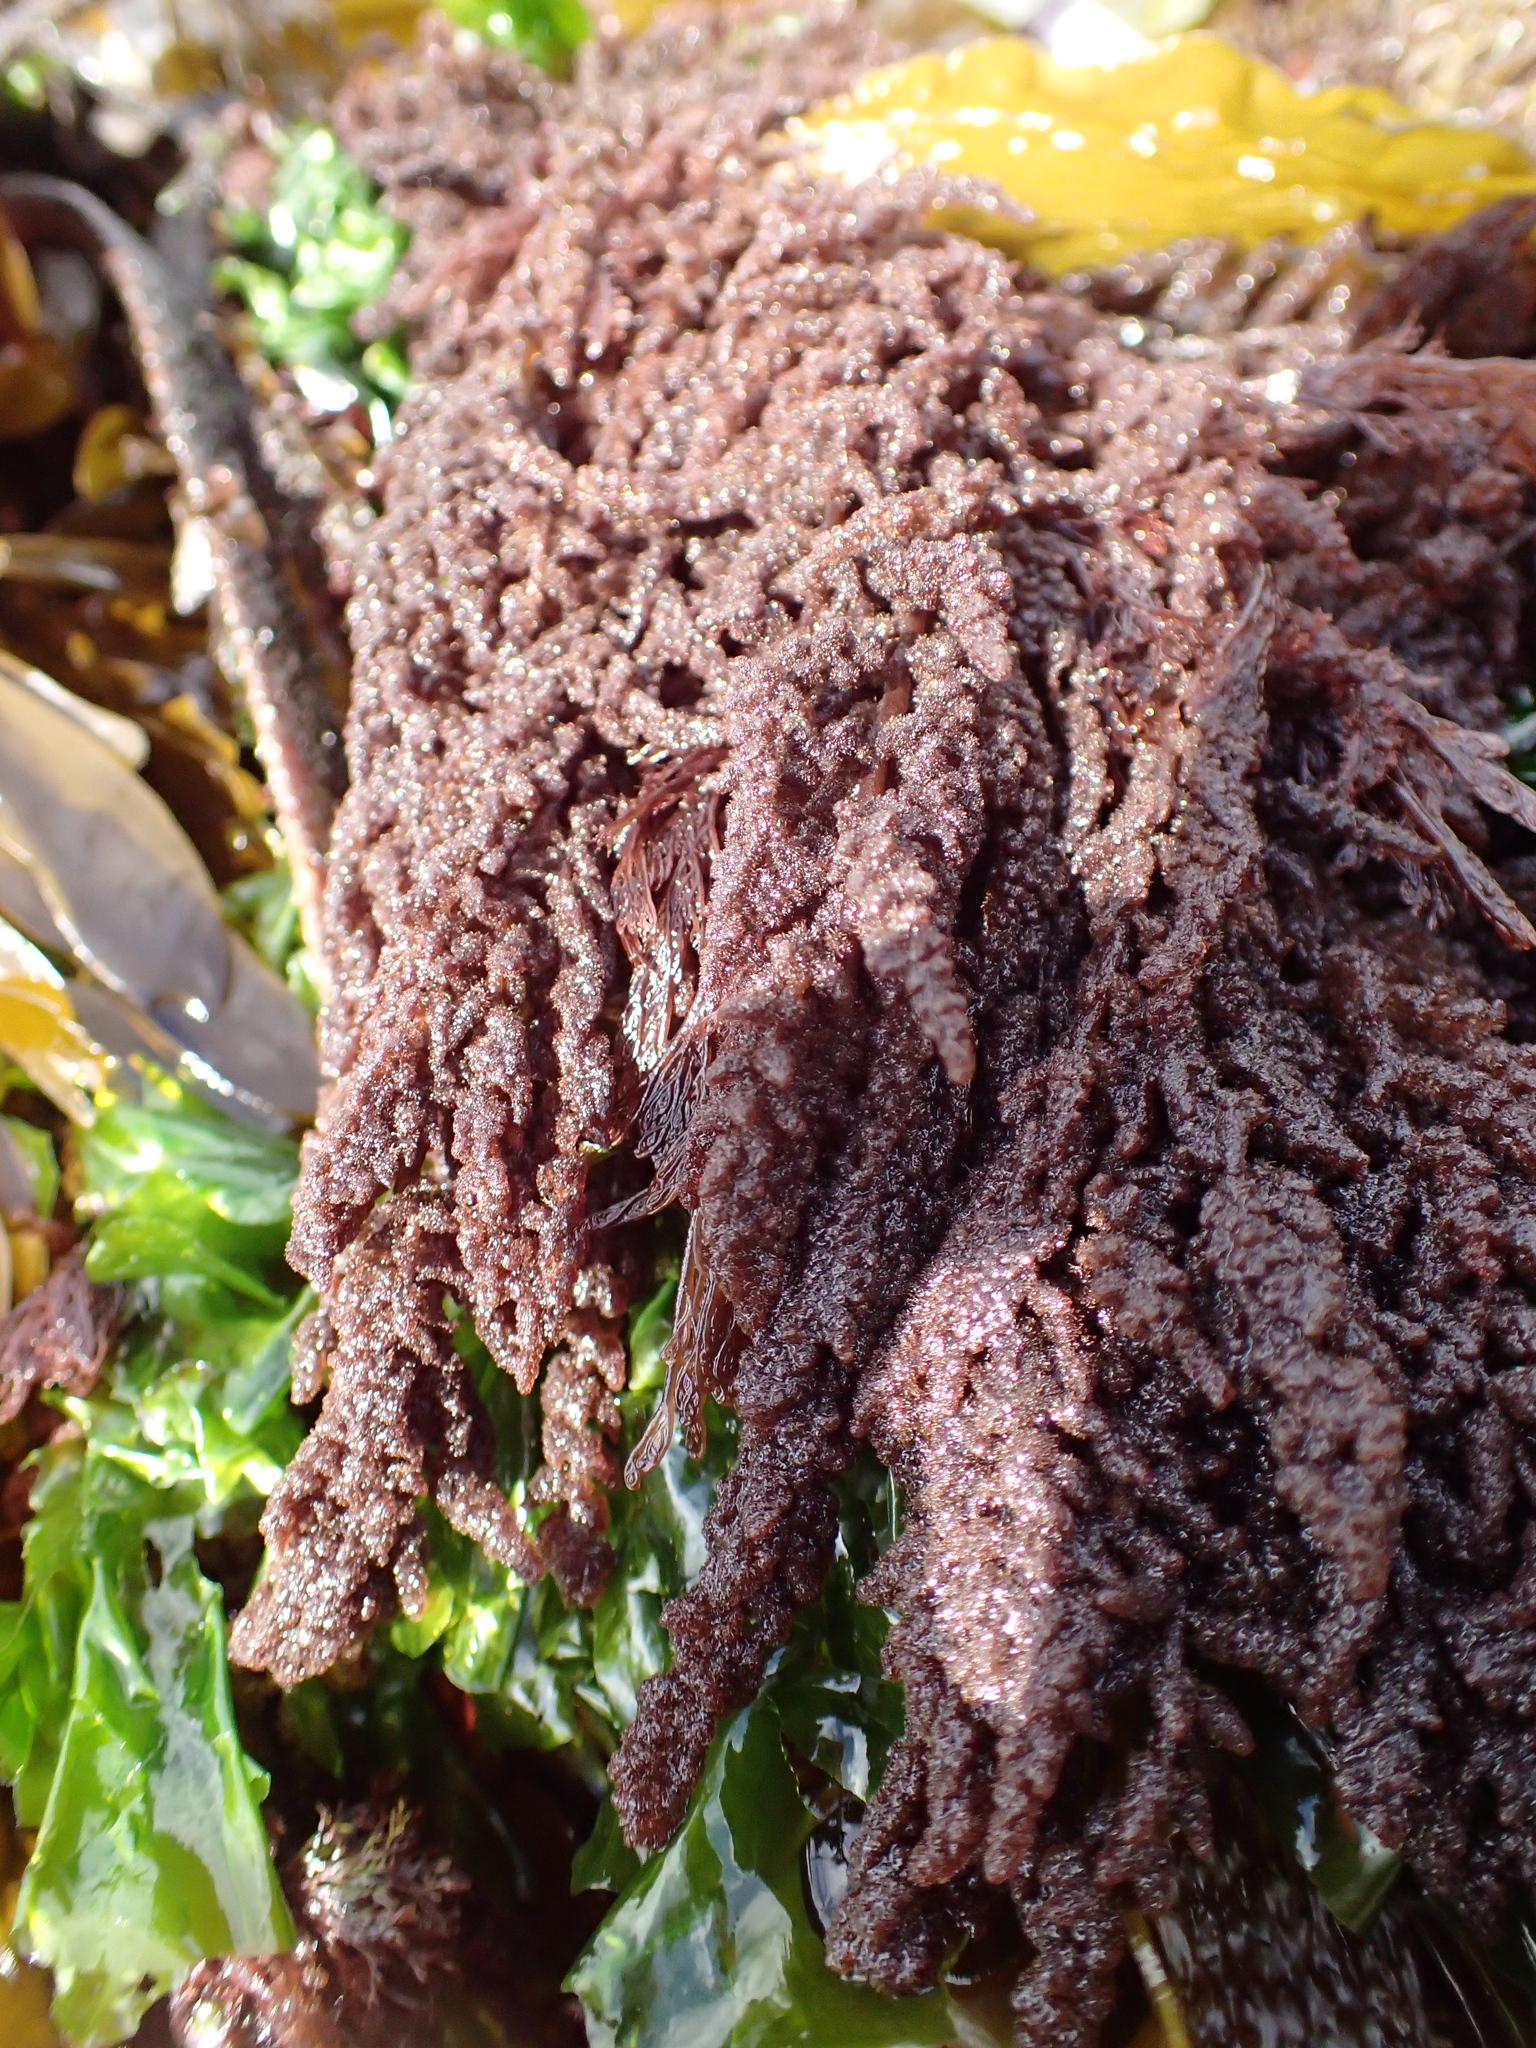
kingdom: Plantae
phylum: Rhodophyta
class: Florideophyceae
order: Ceramiales
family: Callithamniaceae
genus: Callithamnion
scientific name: Callithamnion pikeanum
